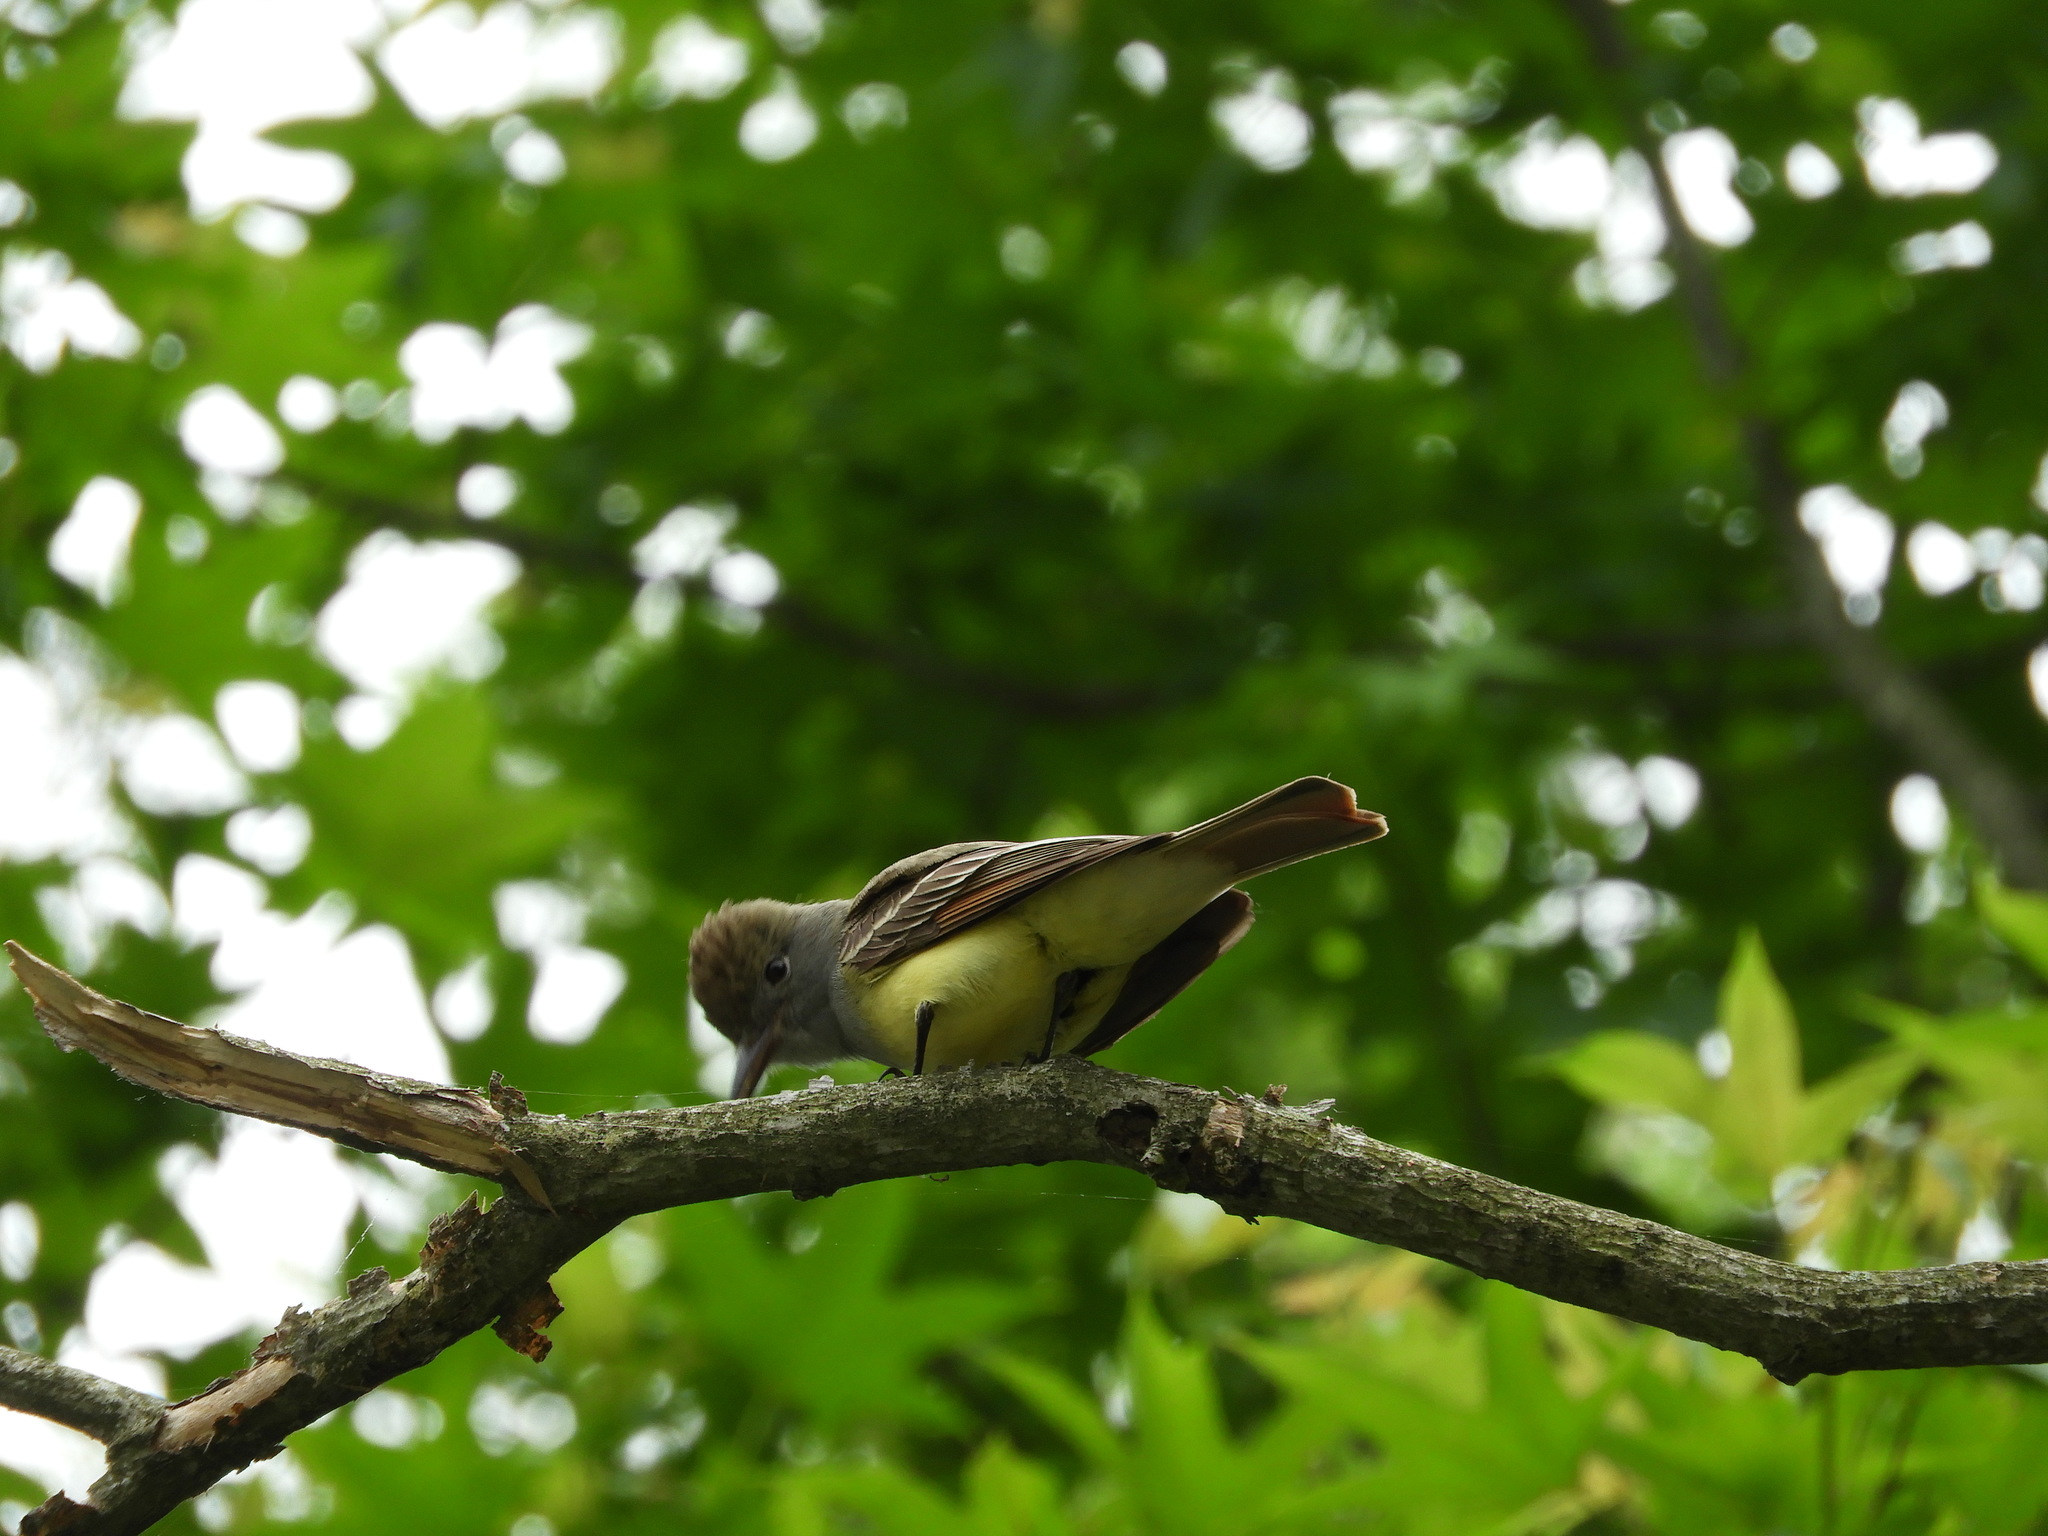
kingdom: Animalia
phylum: Chordata
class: Aves
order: Passeriformes
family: Tyrannidae
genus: Myiarchus
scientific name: Myiarchus crinitus
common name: Great crested flycatcher
